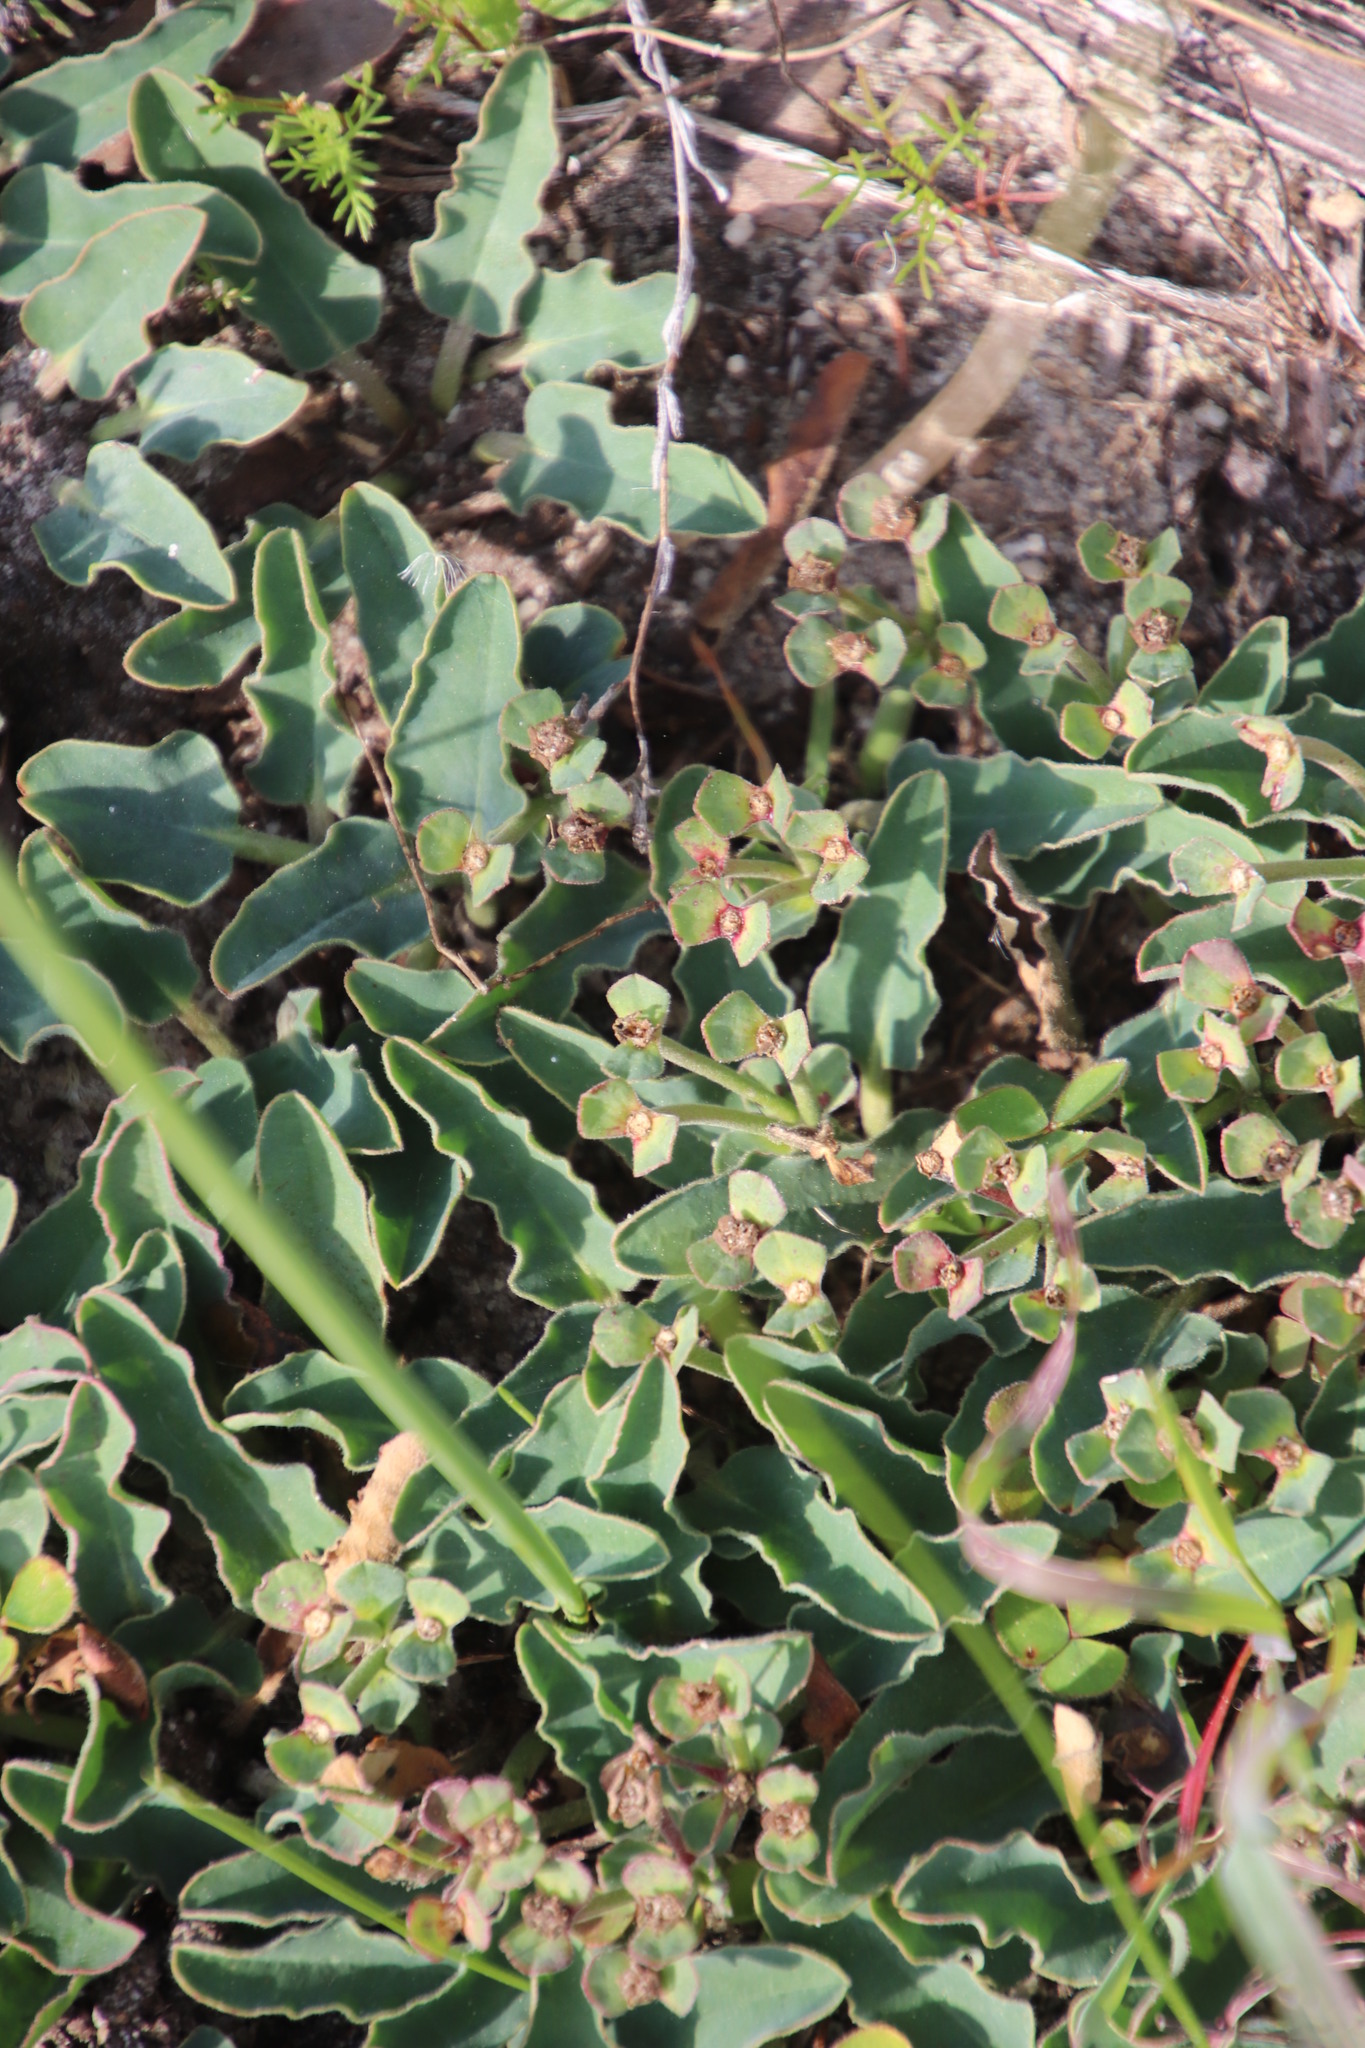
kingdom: Plantae
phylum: Tracheophyta
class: Magnoliopsida
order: Malpighiales
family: Euphorbiaceae
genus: Euphorbia
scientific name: Euphorbia tuberosa
